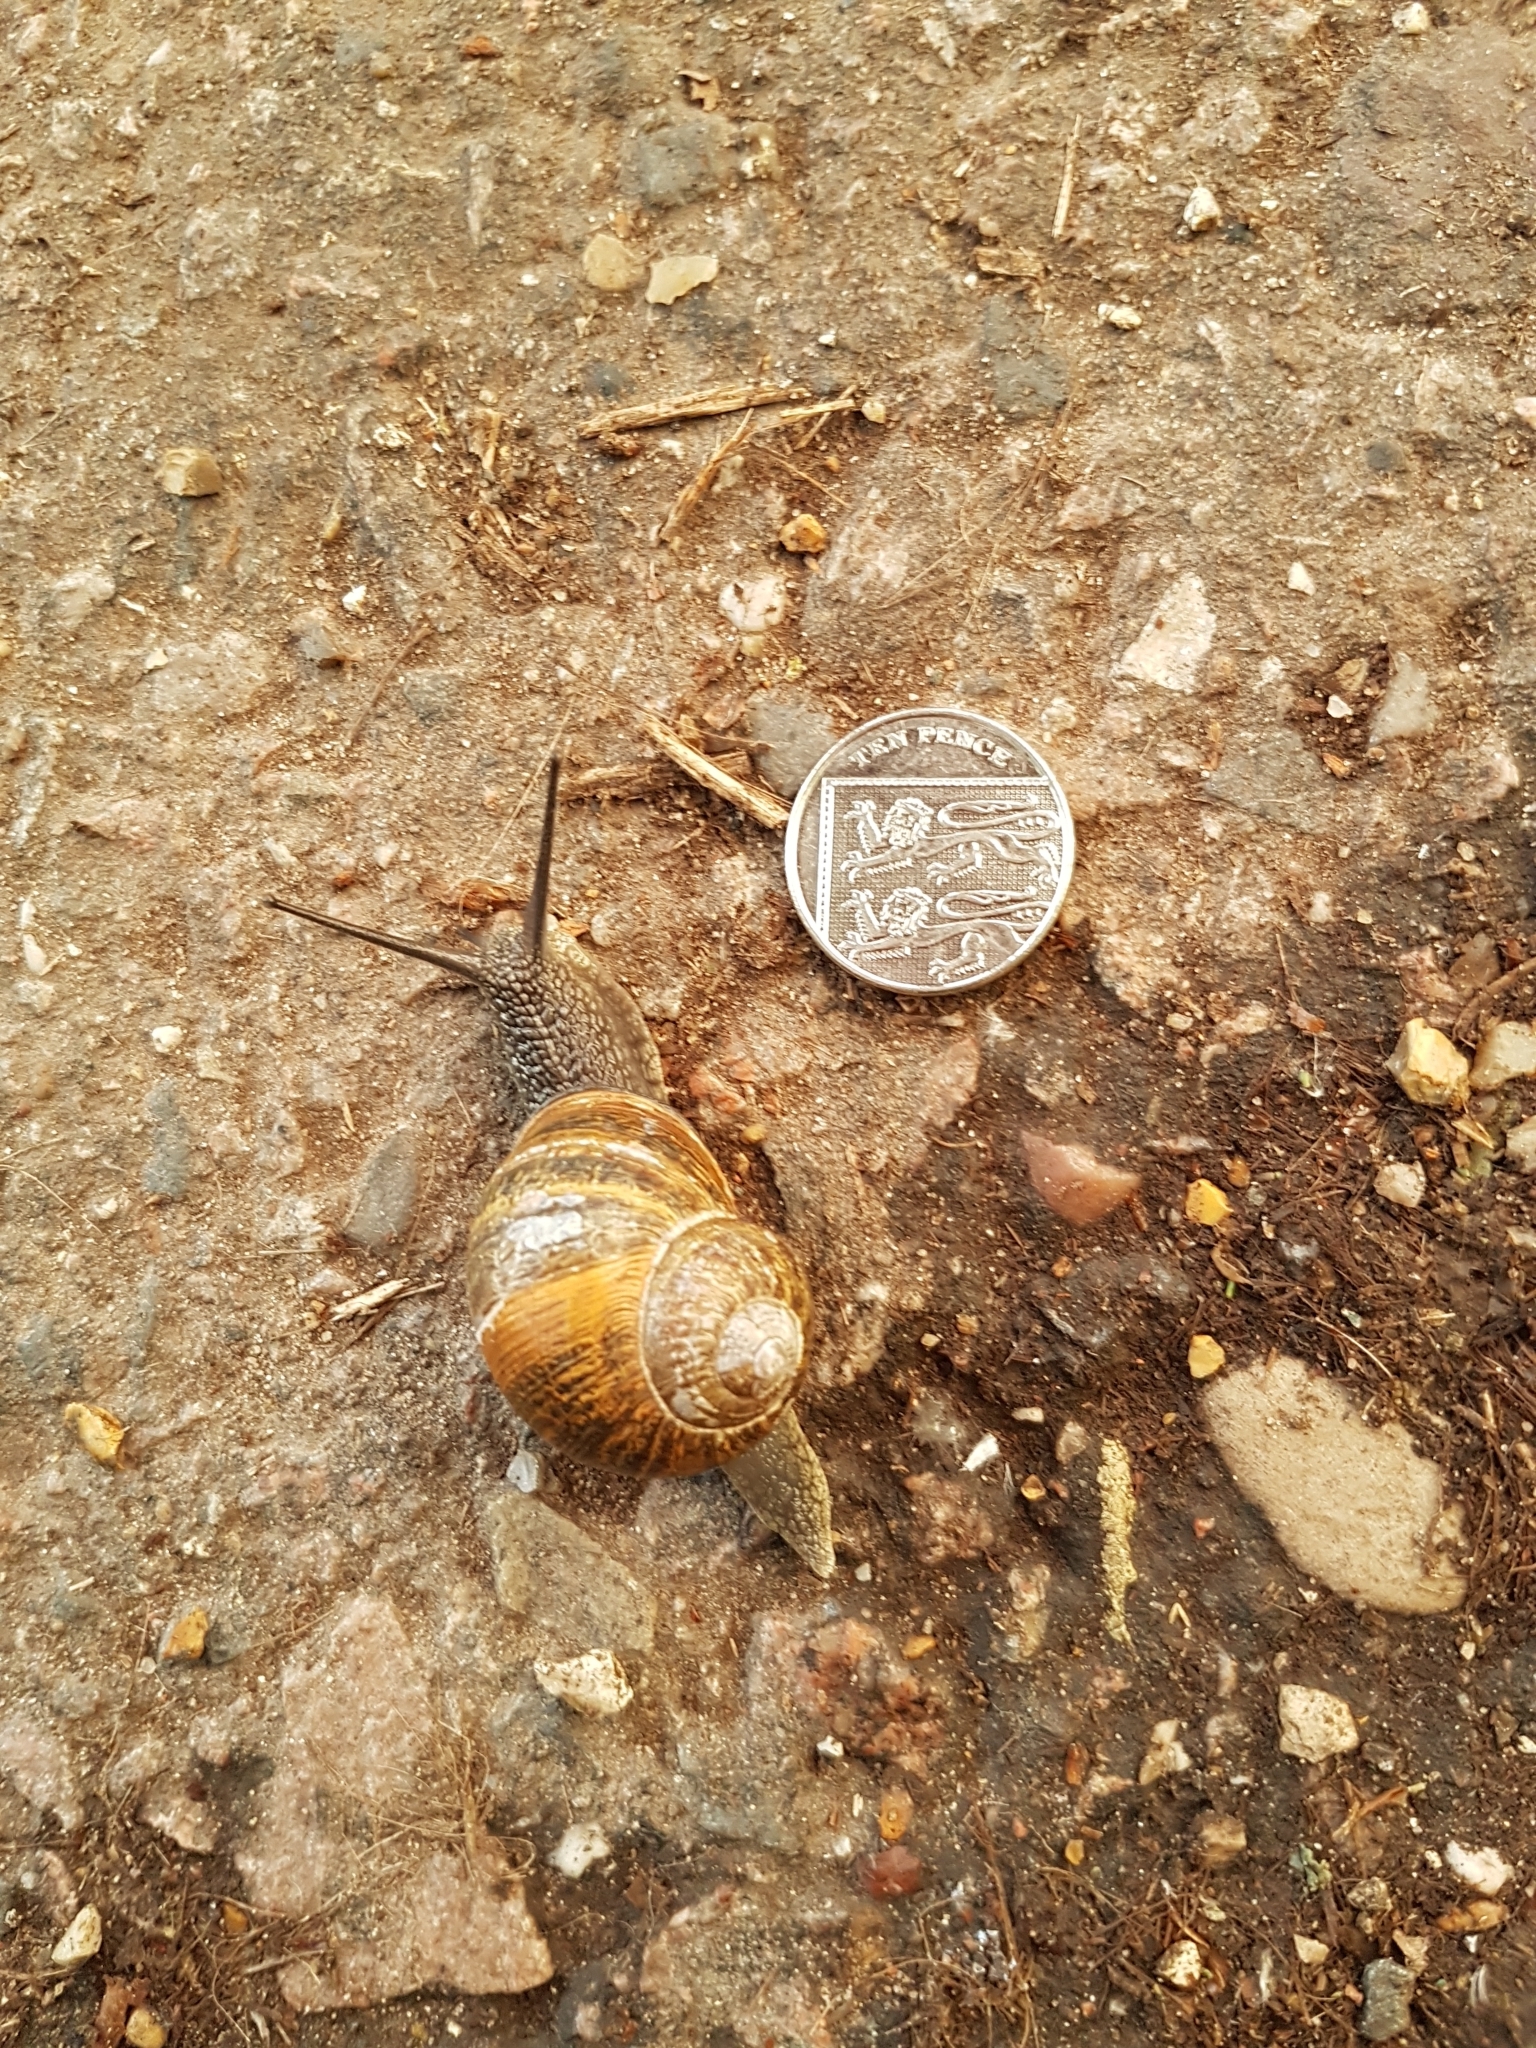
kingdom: Animalia
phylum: Mollusca
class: Gastropoda
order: Stylommatophora
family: Helicidae
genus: Cornu
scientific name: Cornu aspersum
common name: Brown garden snail
